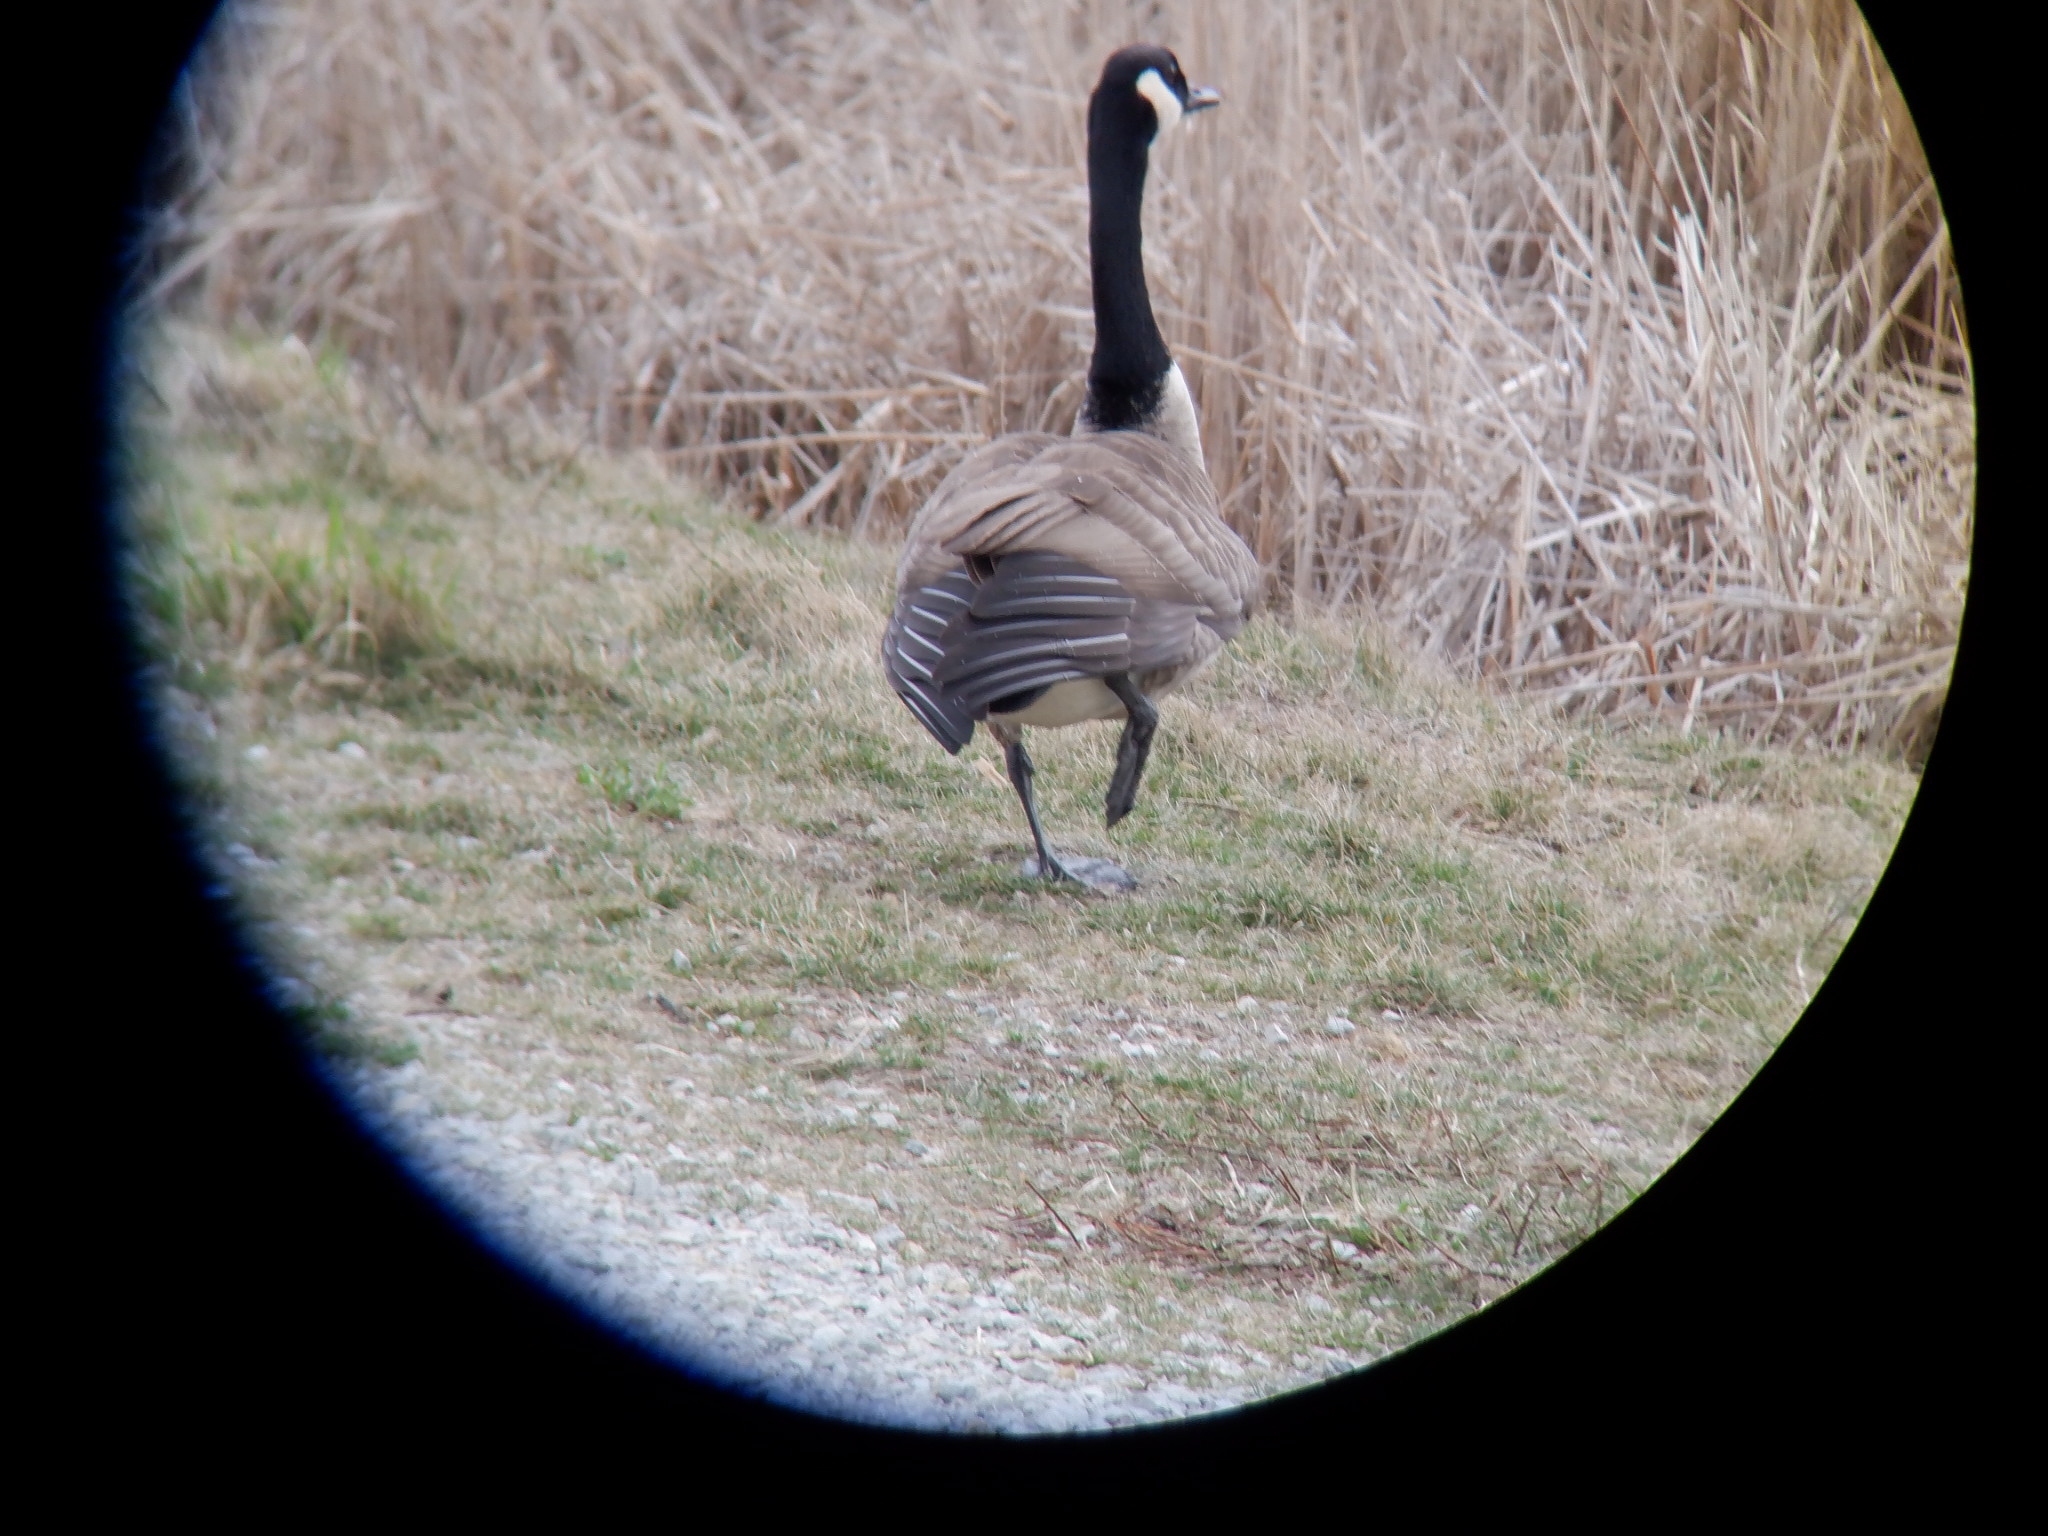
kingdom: Animalia
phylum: Chordata
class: Aves
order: Anseriformes
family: Anatidae
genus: Branta
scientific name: Branta canadensis
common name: Canada goose
